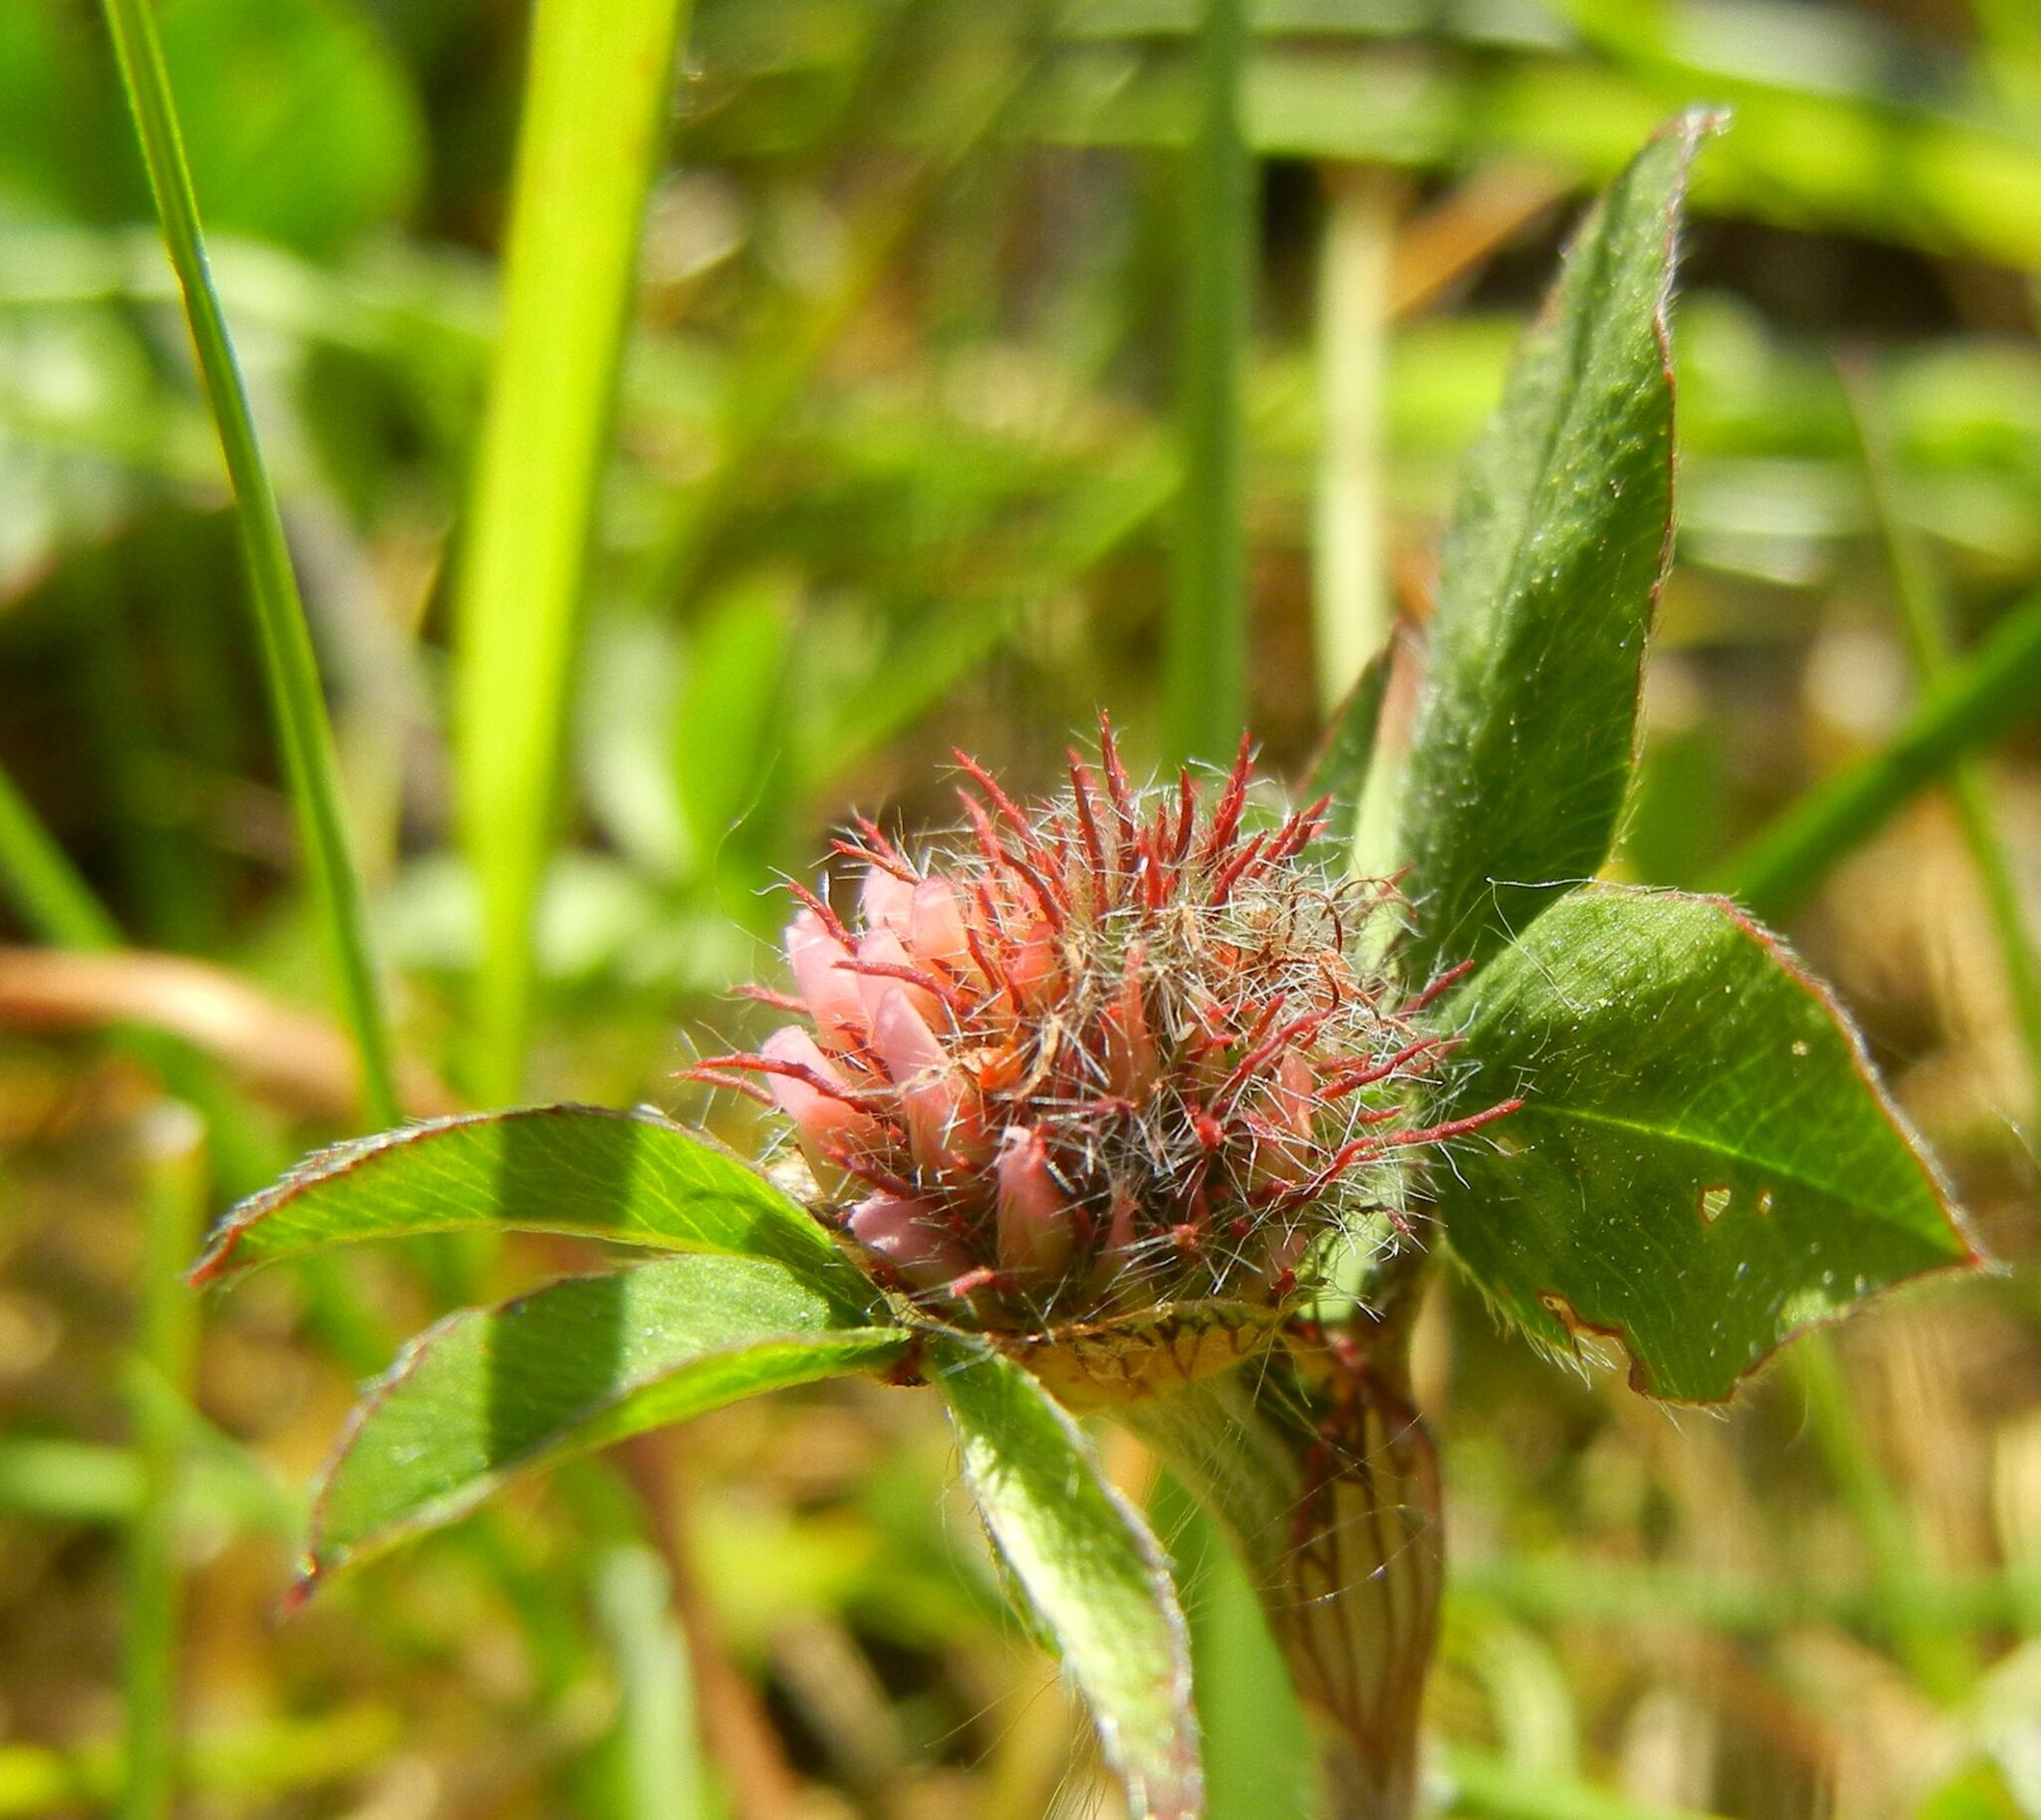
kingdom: Plantae
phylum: Tracheophyta
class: Magnoliopsida
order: Fabales
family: Fabaceae
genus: Trifolium
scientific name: Trifolium pratense
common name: Red clover
